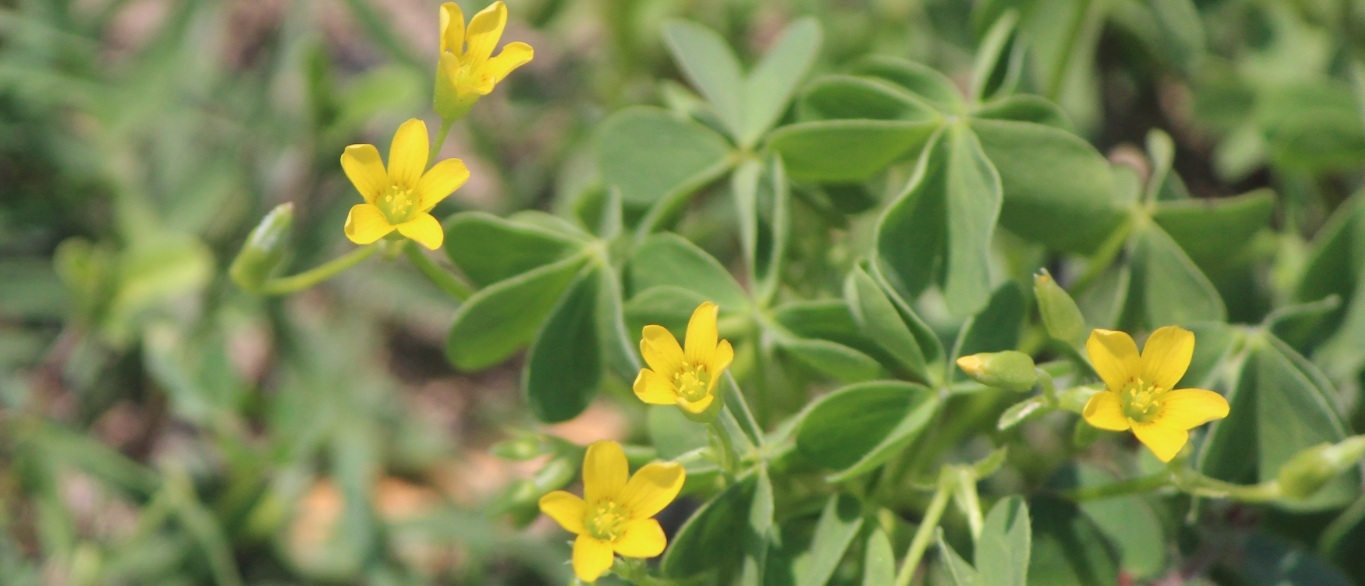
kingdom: Plantae
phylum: Tracheophyta
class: Magnoliopsida
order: Oxalidales
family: Oxalidaceae
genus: Oxalis
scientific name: Oxalis corniculata
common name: Procumbent yellow-sorrel
